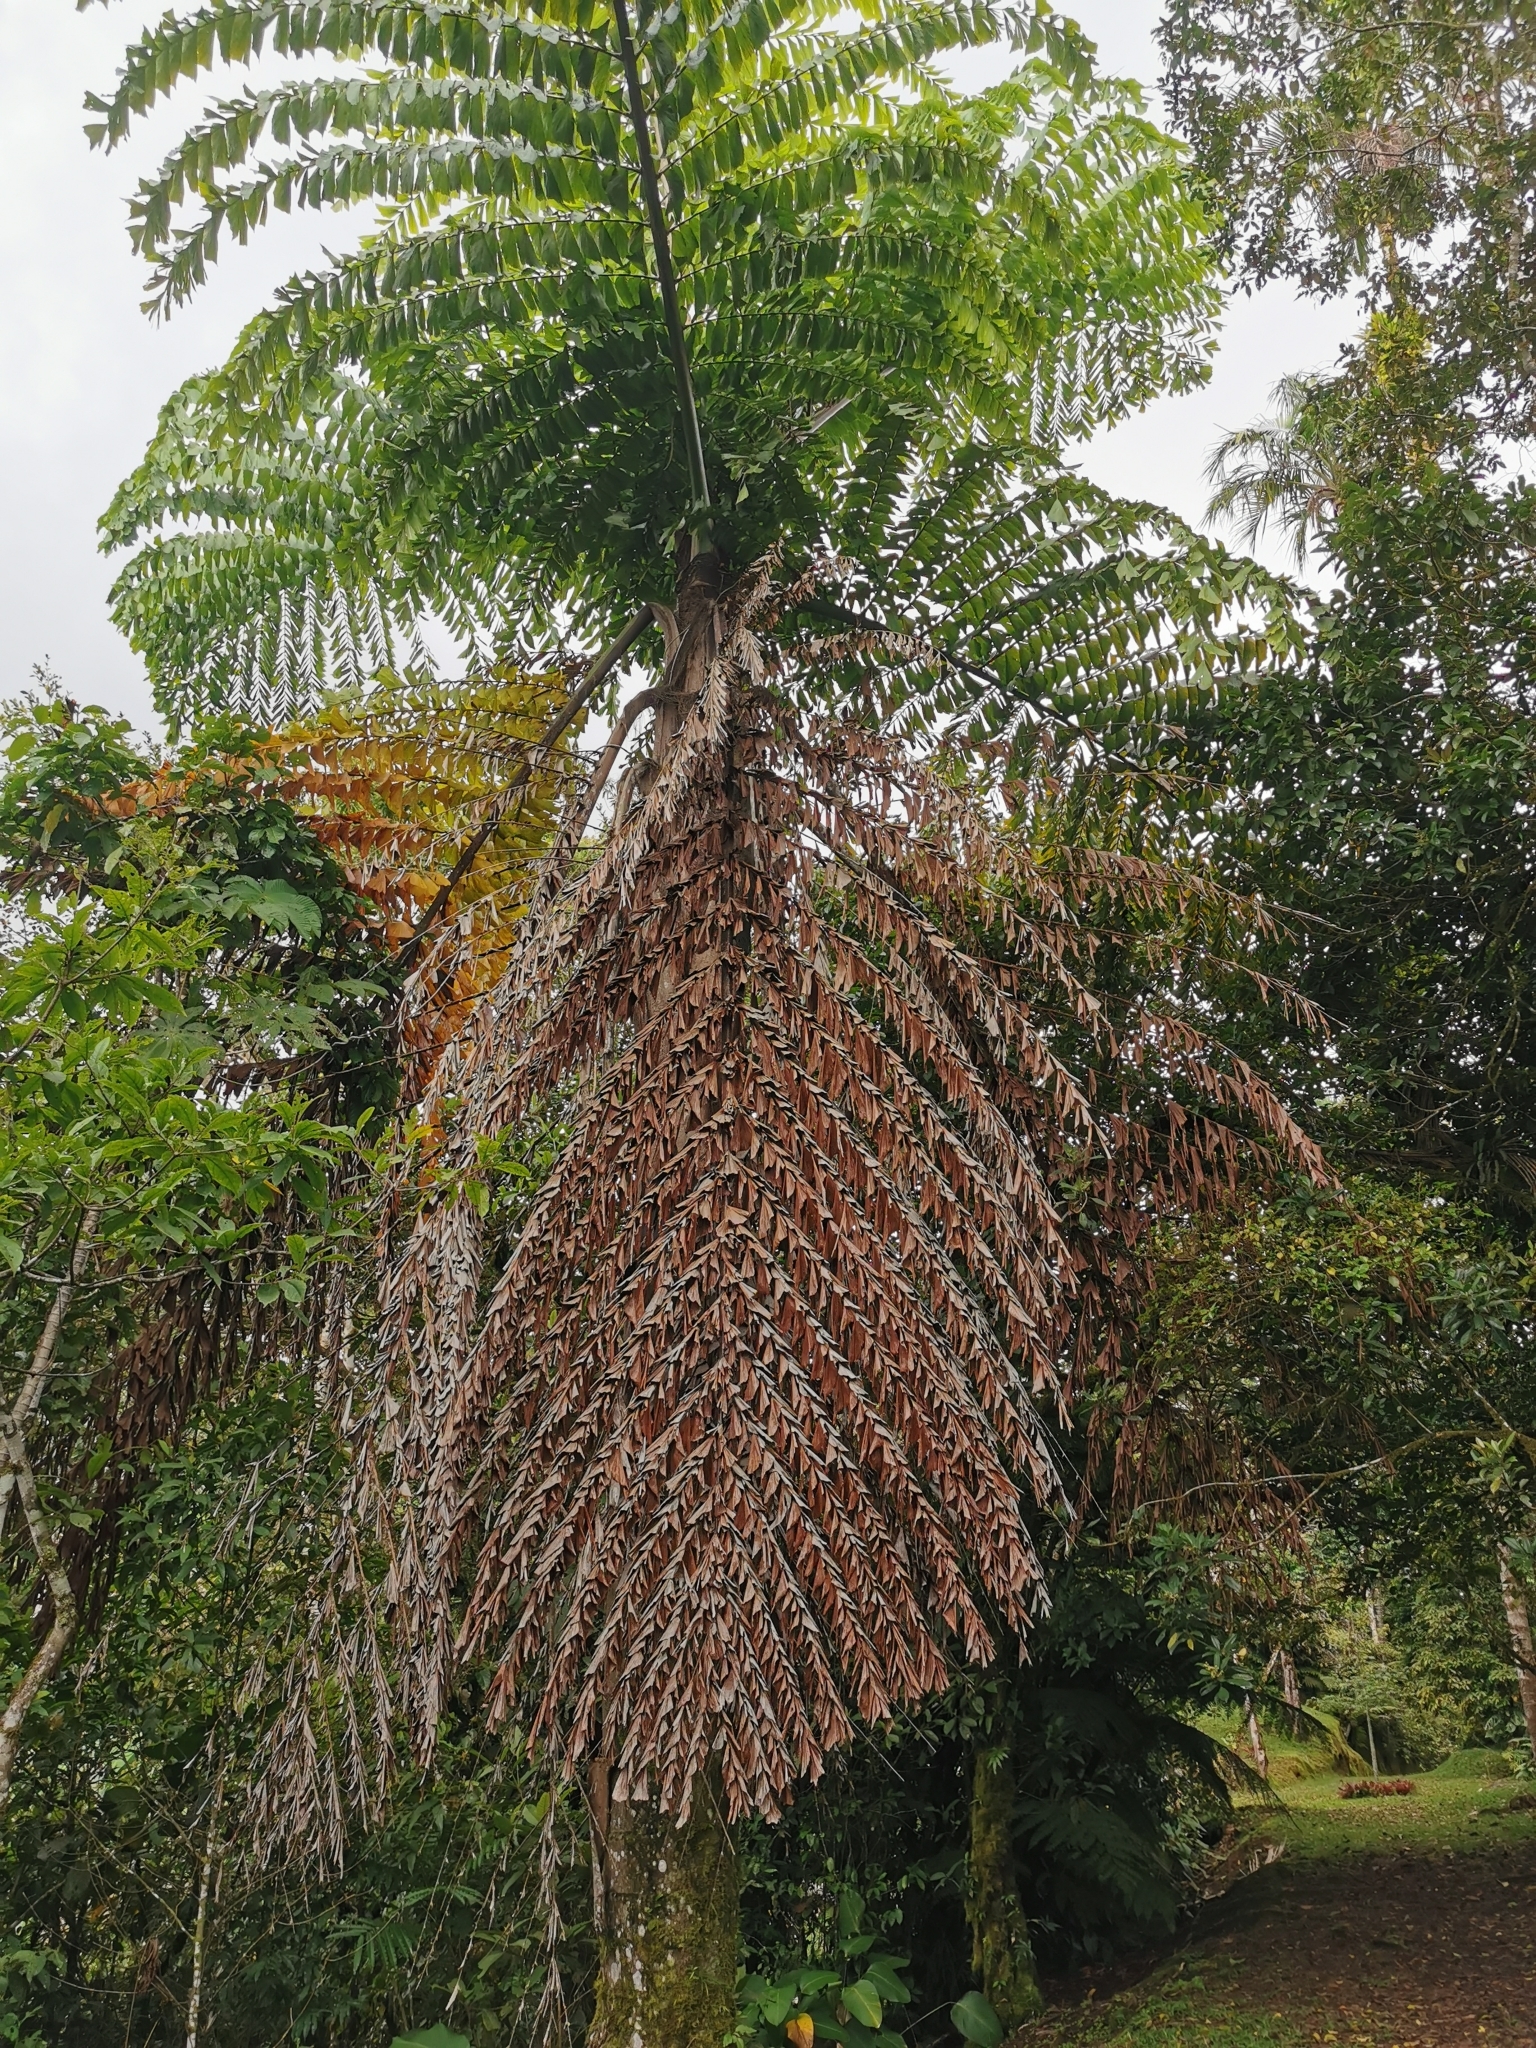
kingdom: Plantae
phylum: Tracheophyta
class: Liliopsida
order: Arecales
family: Arecaceae
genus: Caryota
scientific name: Caryota mitis
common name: Burmese fishtail palm
